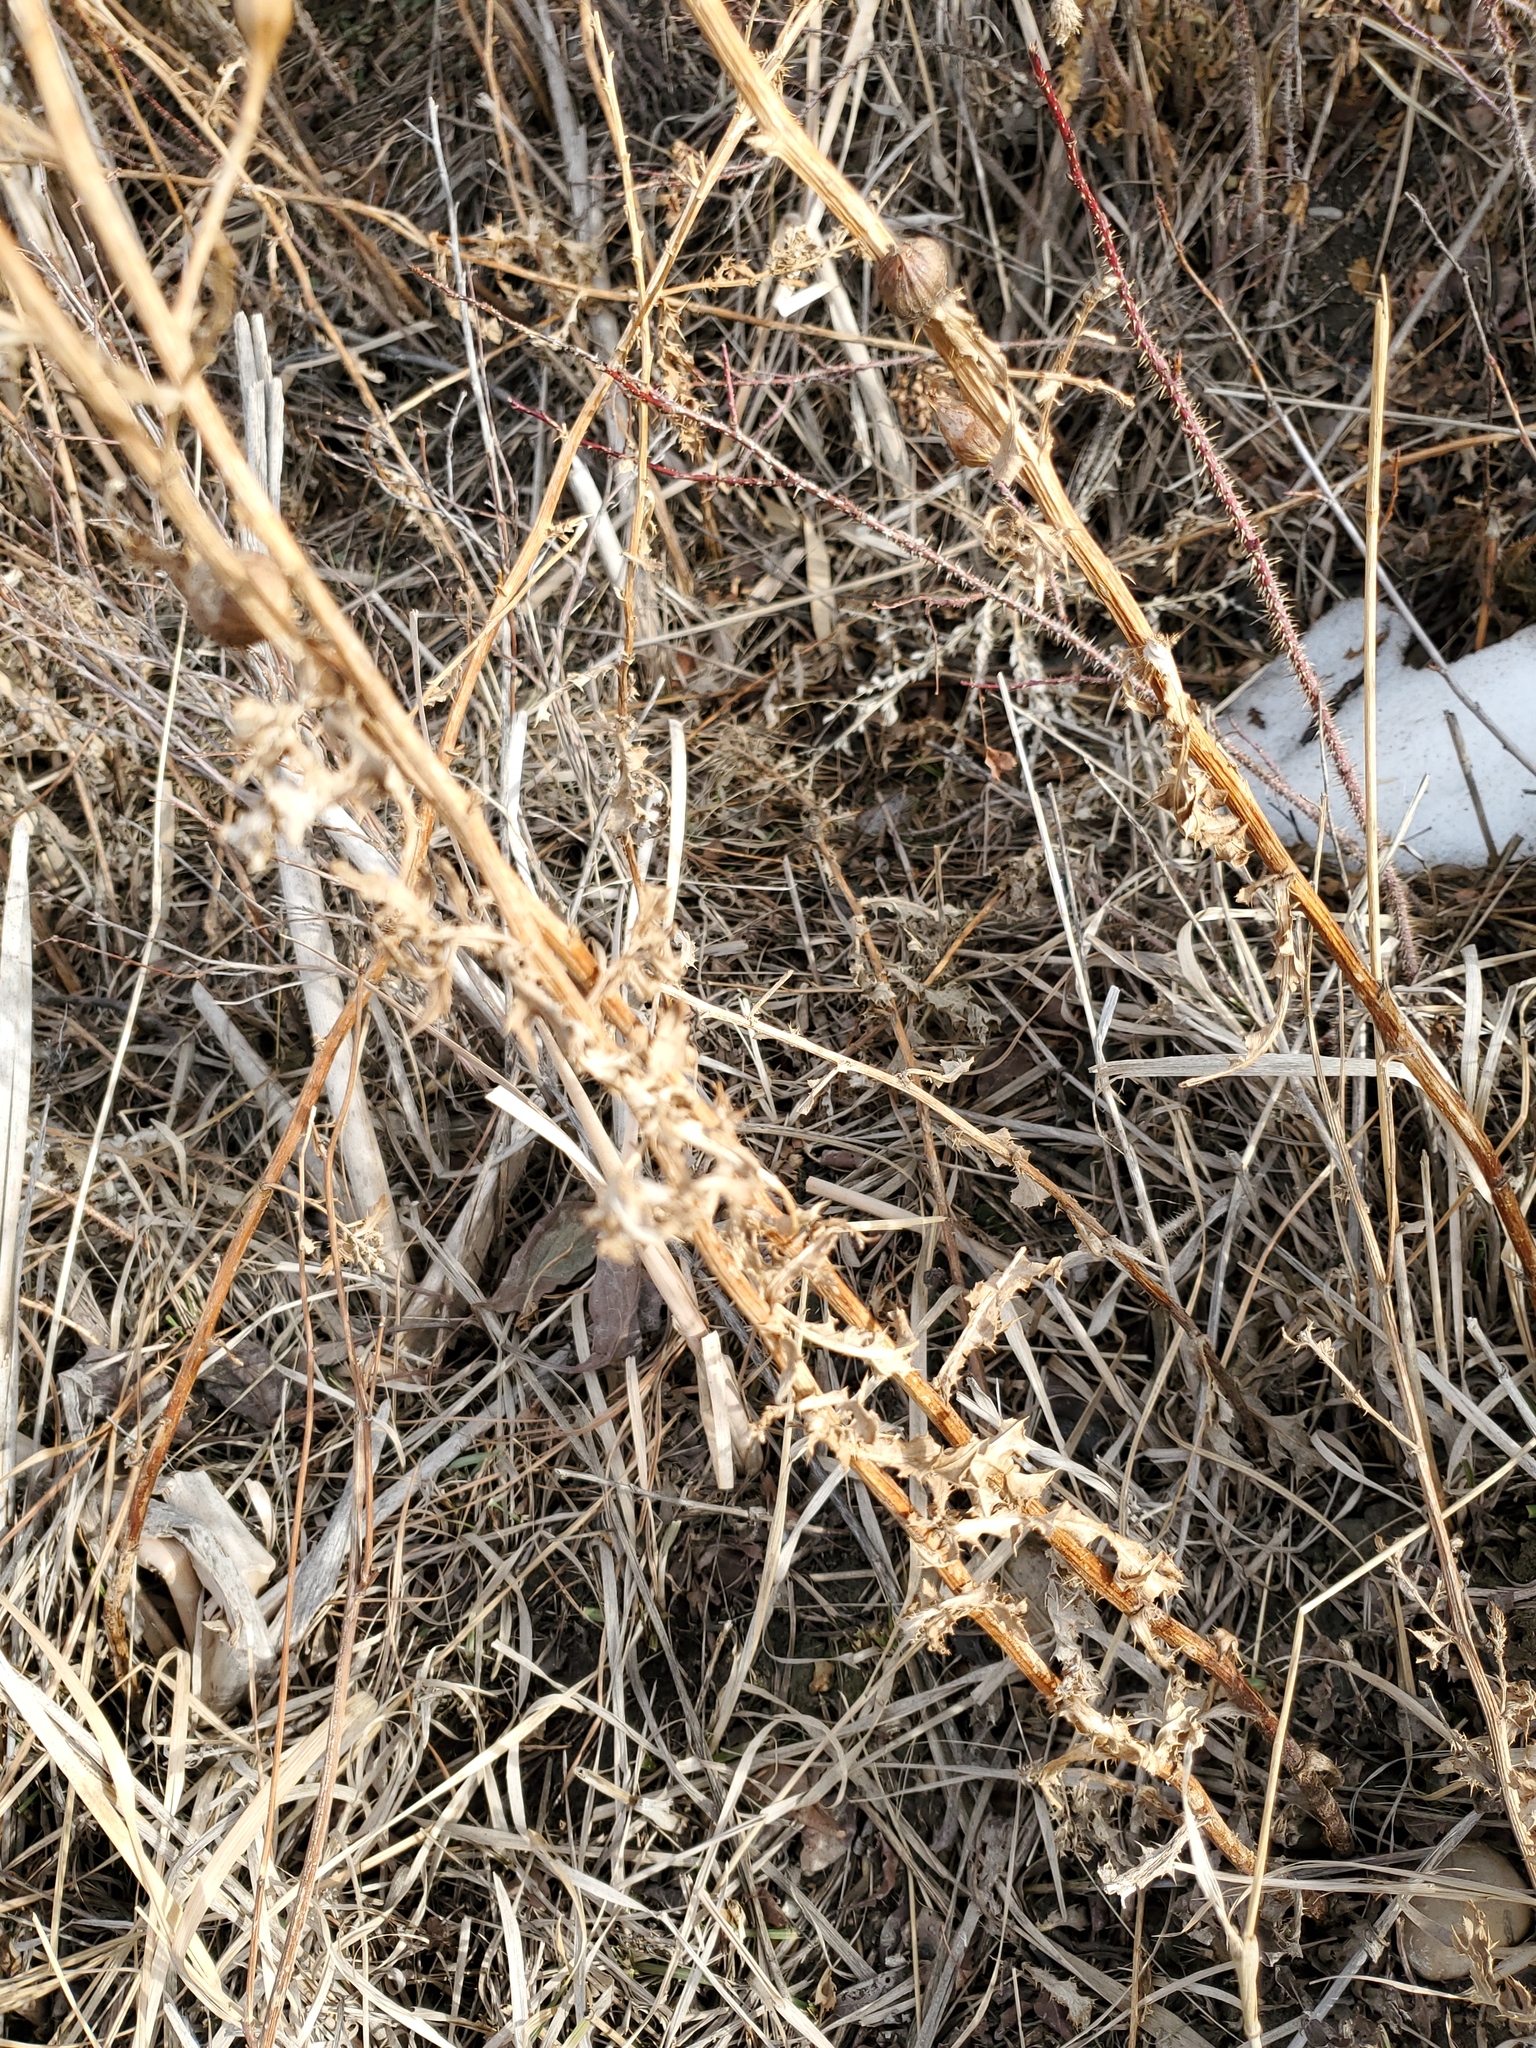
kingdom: Plantae
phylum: Tracheophyta
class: Magnoliopsida
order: Asterales
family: Asteraceae
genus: Cirsium
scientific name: Cirsium arvense
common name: Creeping thistle
